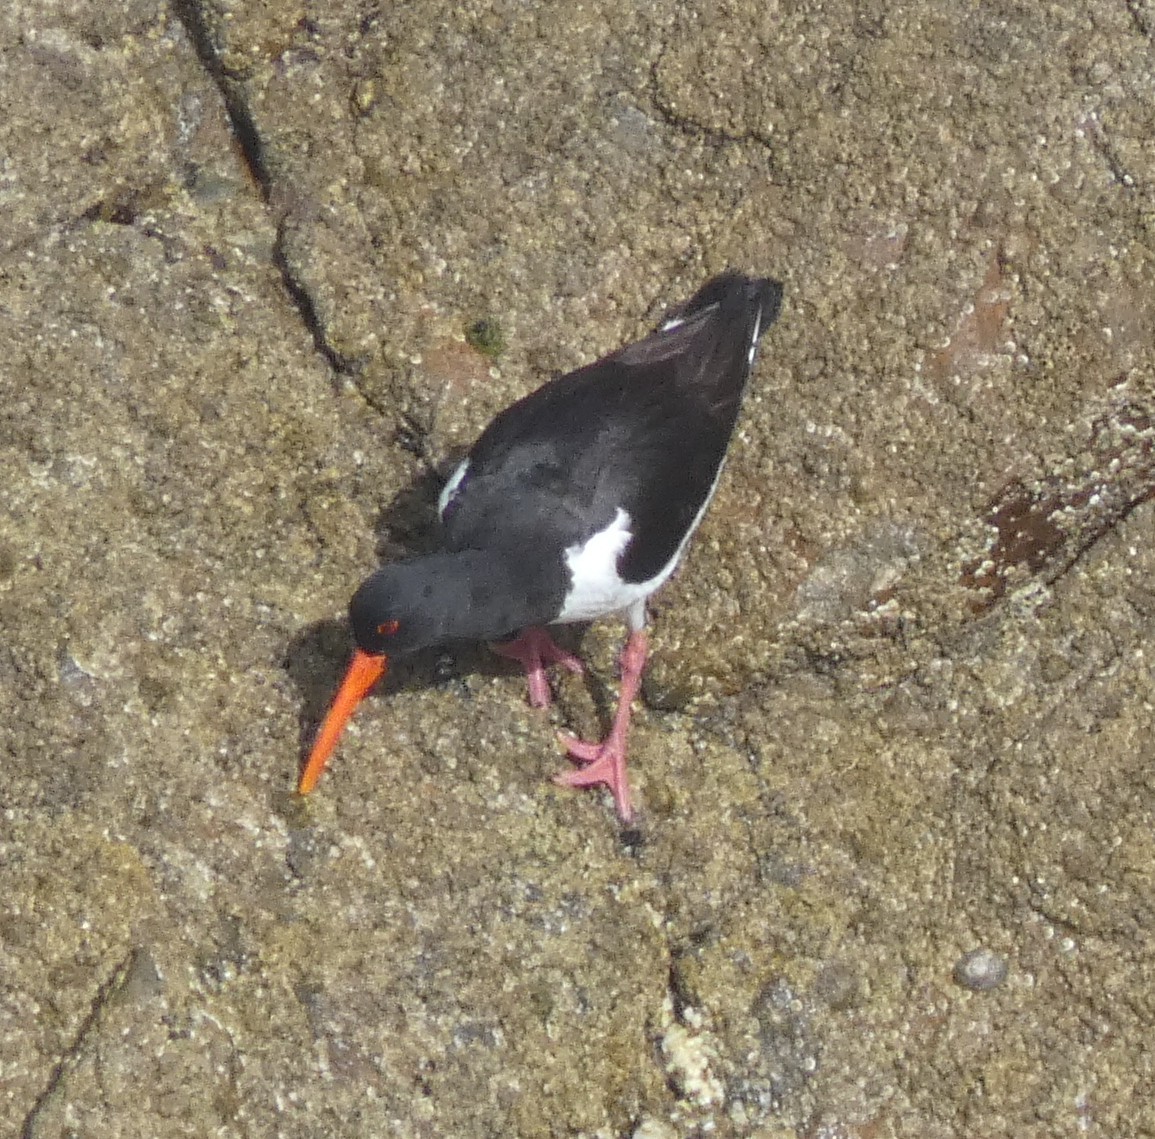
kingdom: Animalia
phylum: Chordata
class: Aves
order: Charadriiformes
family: Haematopodidae
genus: Haematopus
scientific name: Haematopus ostralegus
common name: Eurasian oystercatcher
